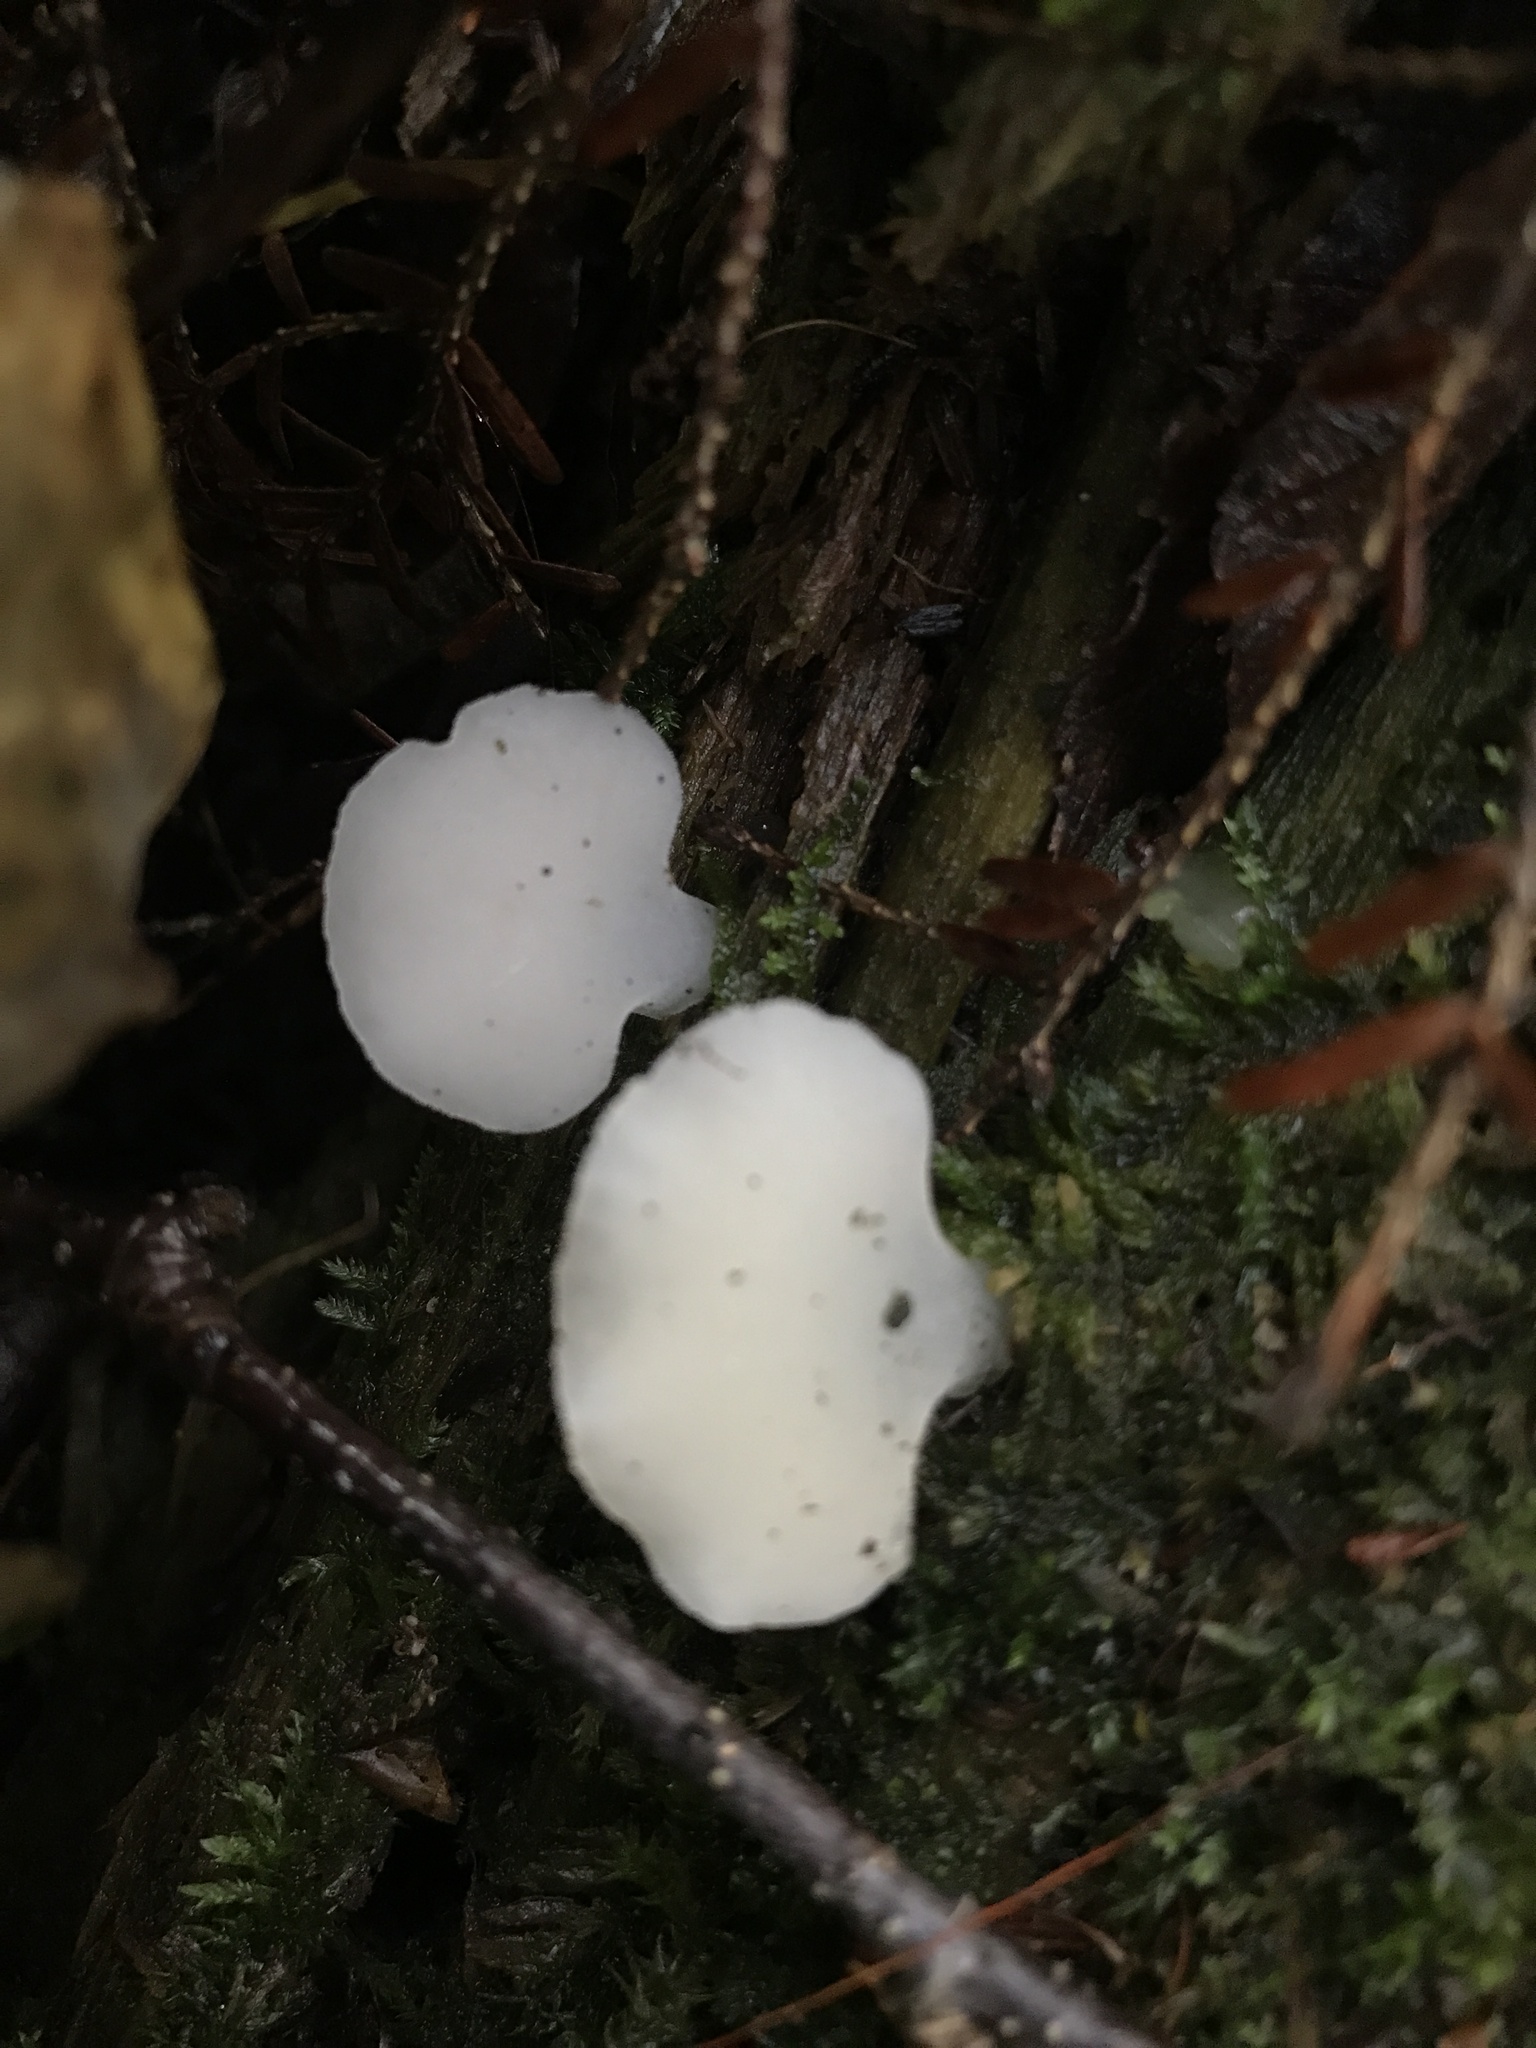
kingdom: Fungi
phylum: Basidiomycota
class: Agaricomycetes
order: Auriculariales
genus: Pseudohydnum
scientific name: Pseudohydnum gelatinosum
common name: Jelly tongue
